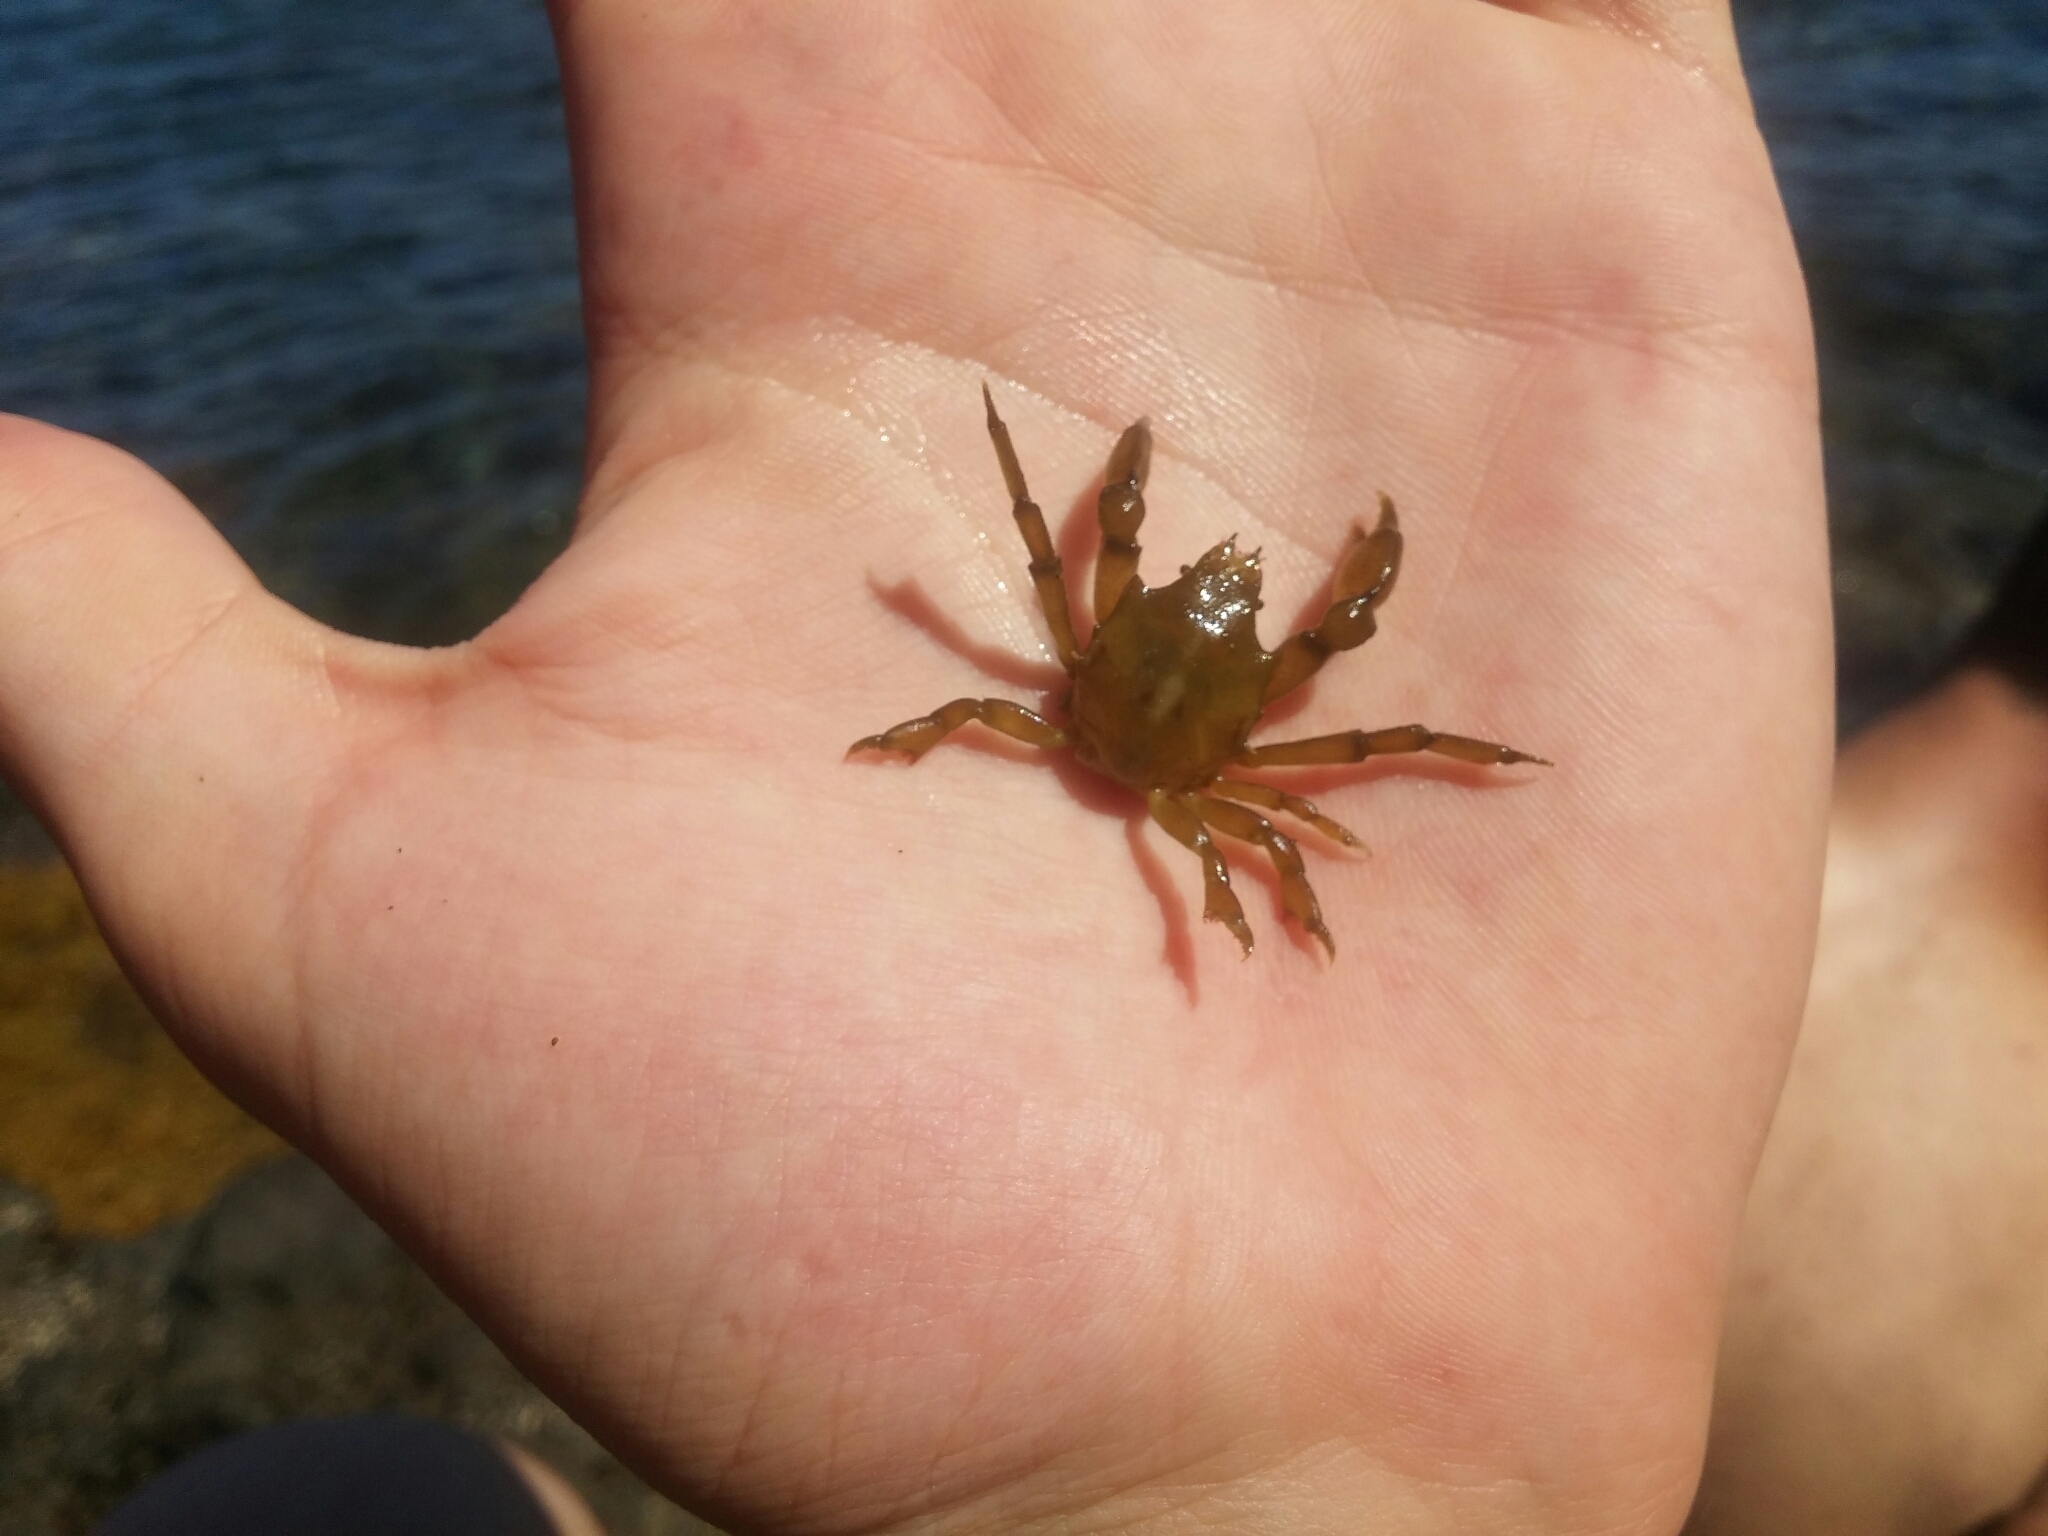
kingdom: Animalia
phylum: Arthropoda
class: Malacostraca
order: Decapoda
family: Epialtidae
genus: Acanthonyx
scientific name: Acanthonyx lunulatus
